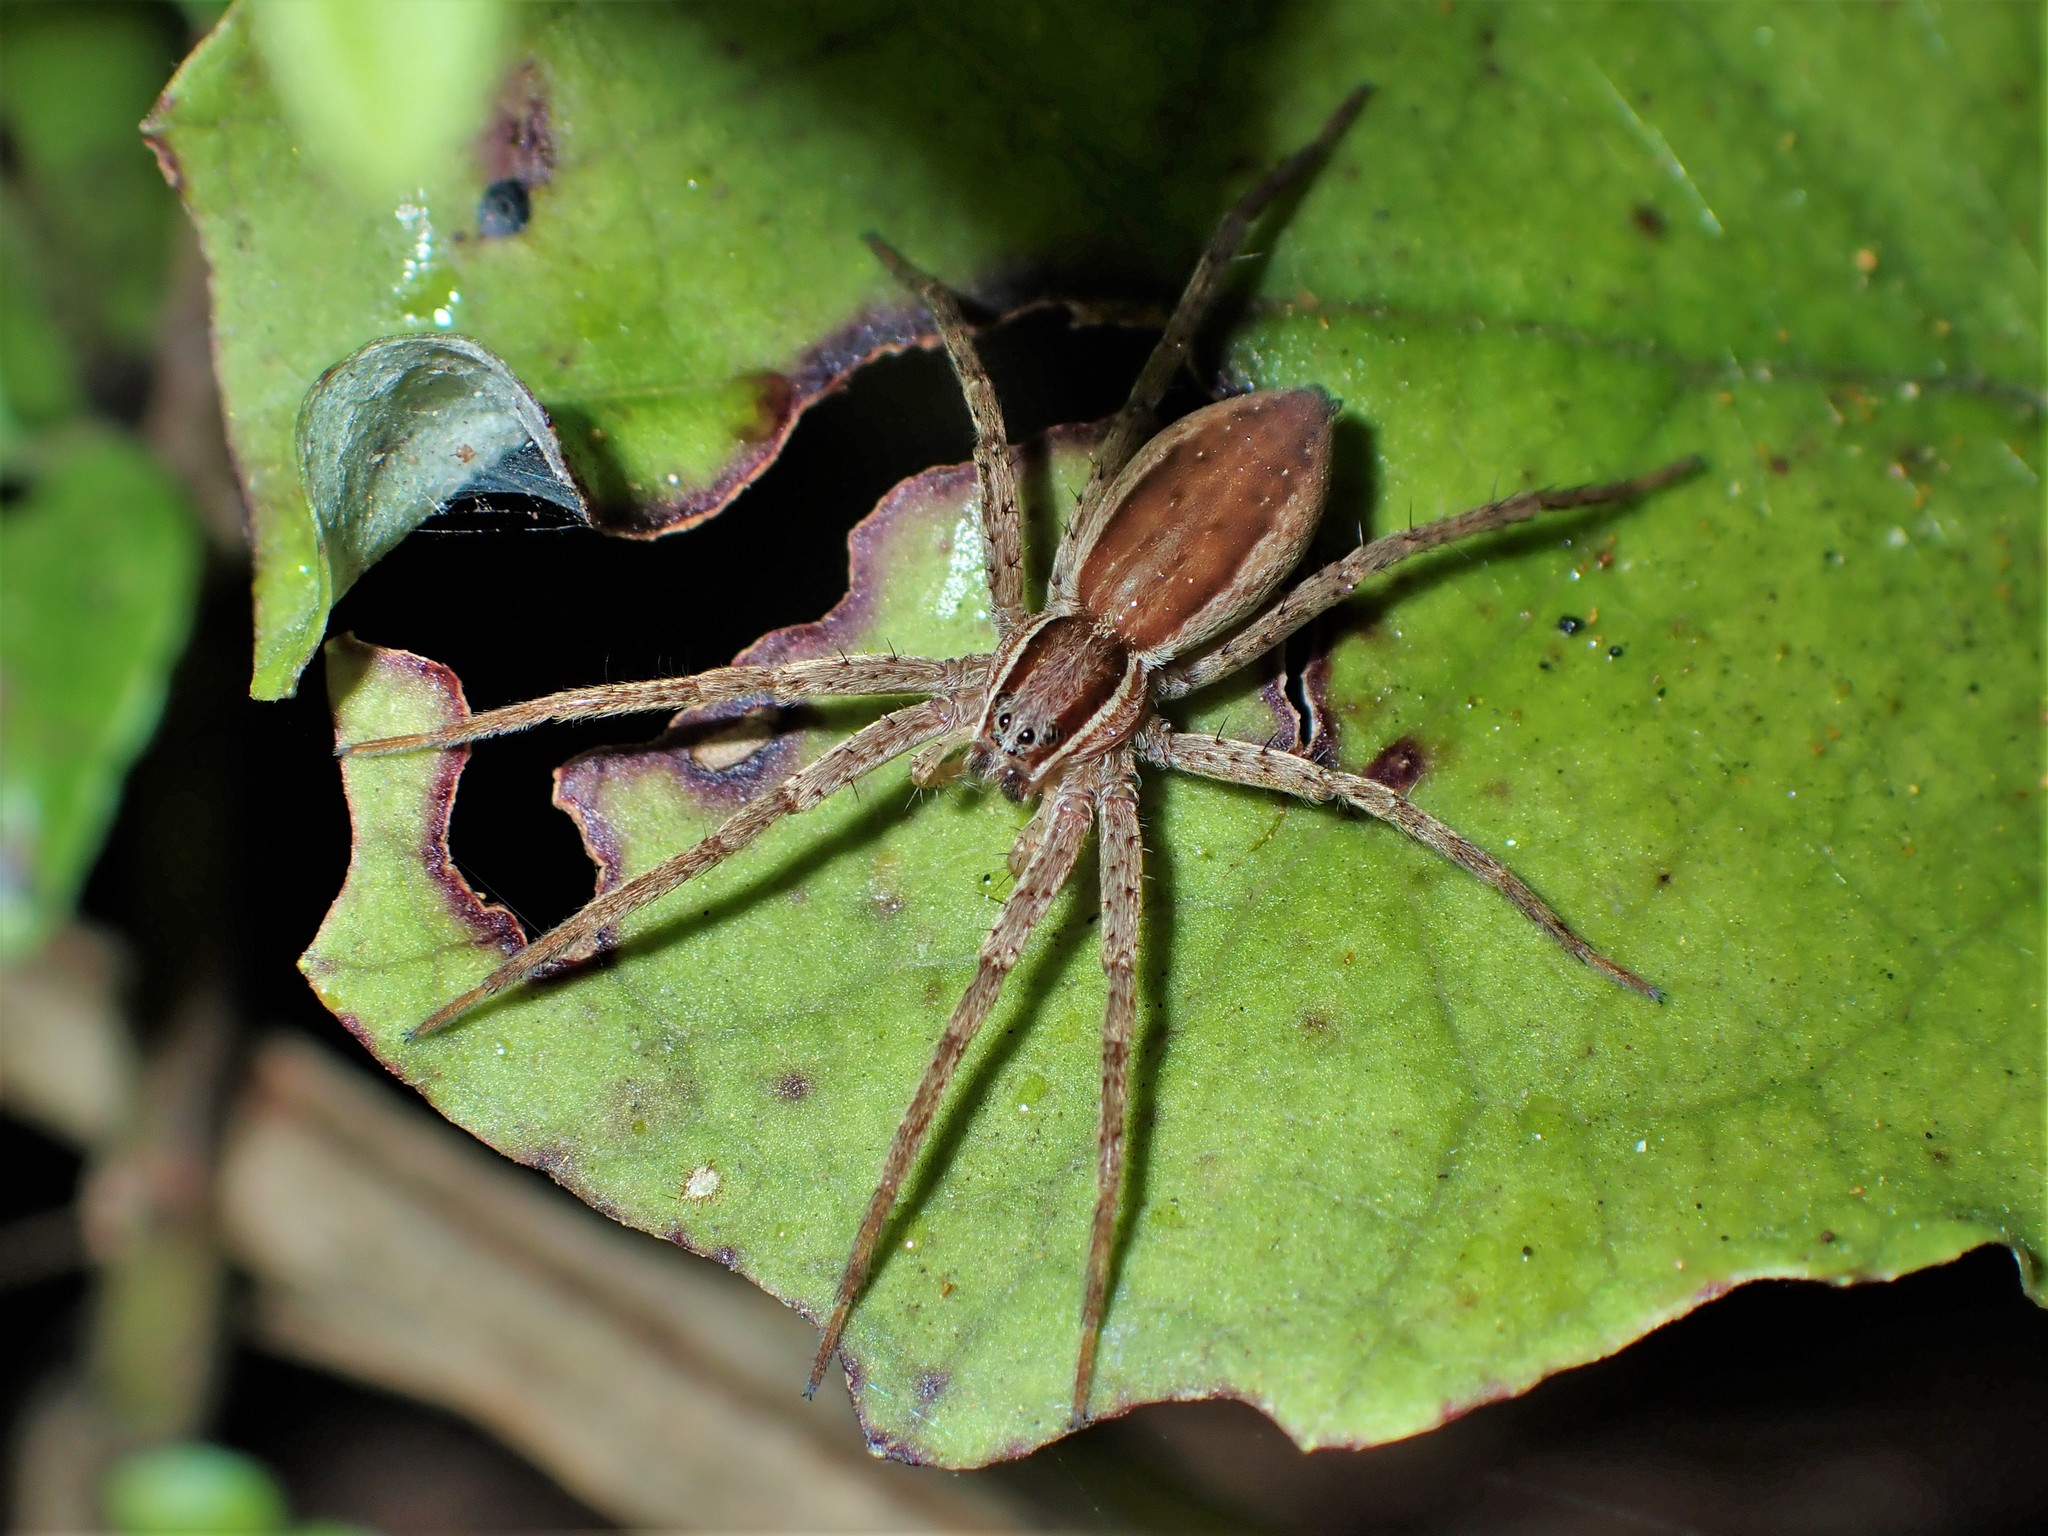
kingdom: Animalia
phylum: Arthropoda
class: Arachnida
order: Araneae
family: Pisauridae
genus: Dolomedes
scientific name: Dolomedes minor
